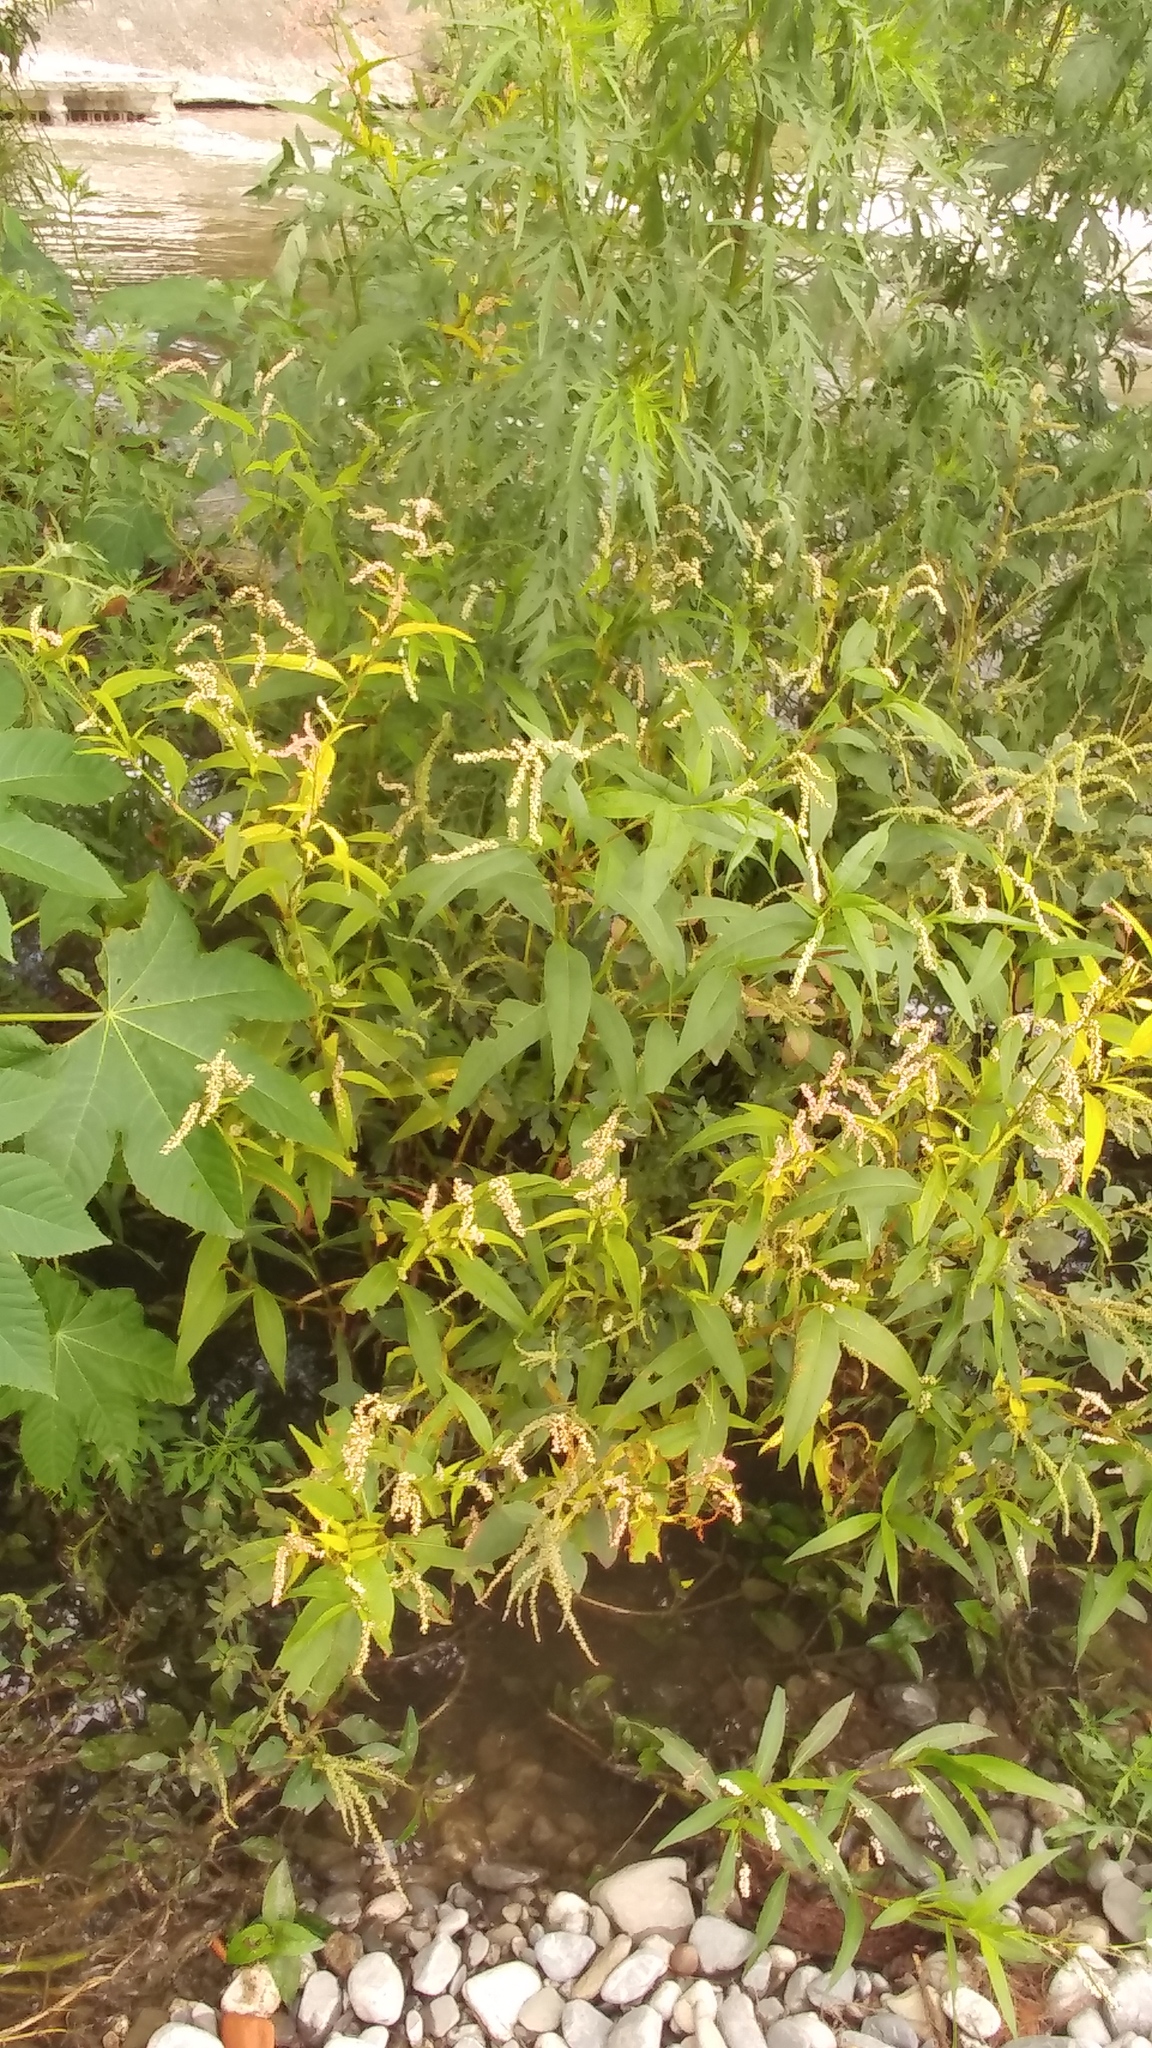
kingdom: Plantae
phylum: Tracheophyta
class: Magnoliopsida
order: Caryophyllales
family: Polygonaceae
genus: Persicaria
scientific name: Persicaria hydropiperoides
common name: Swamp smartweed
